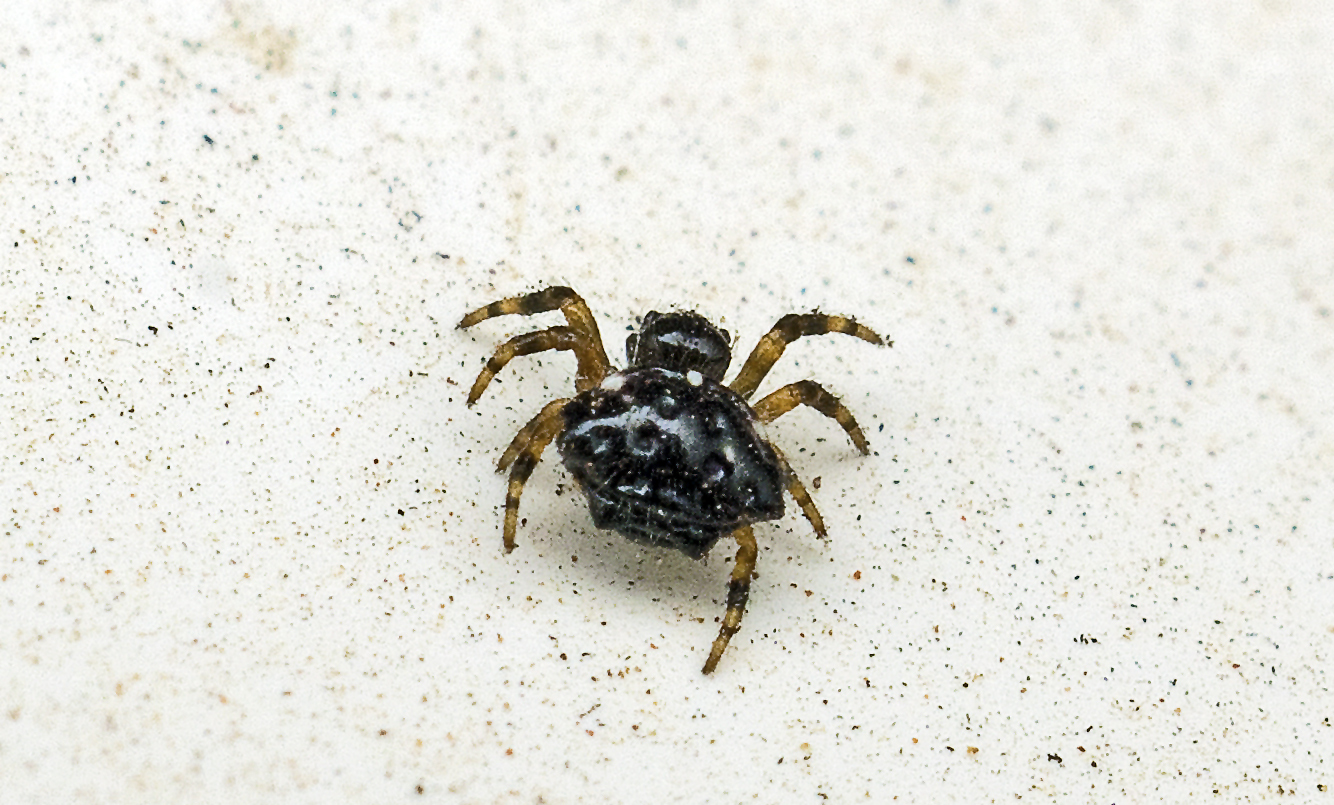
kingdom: Animalia
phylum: Arthropoda
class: Arachnida
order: Araneae
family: Araneidae
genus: Austracantha
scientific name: Austracantha minax
